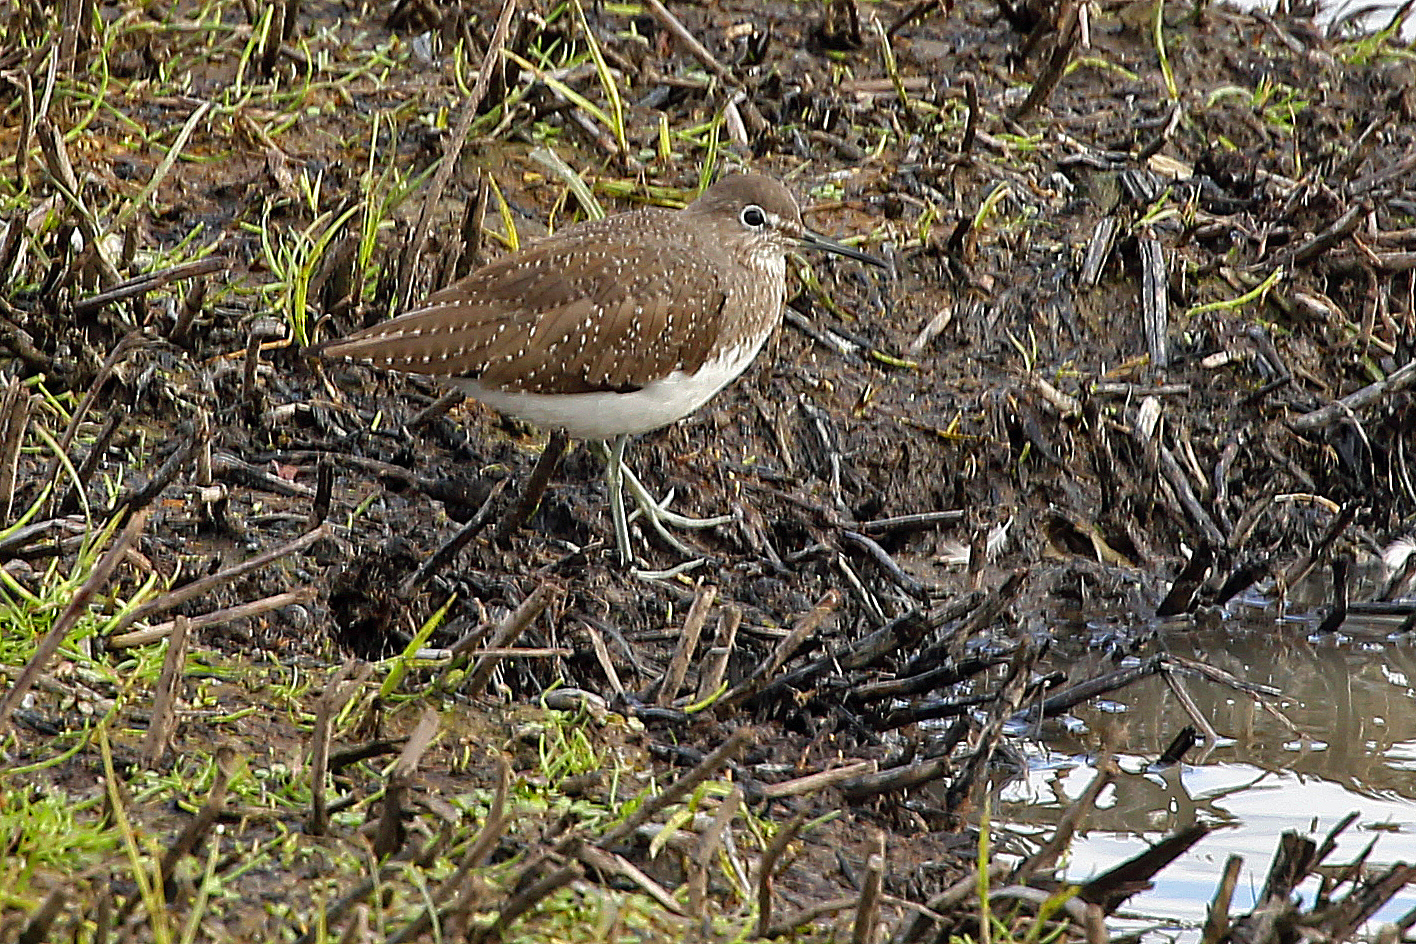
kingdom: Animalia
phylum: Chordata
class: Aves
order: Charadriiformes
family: Scolopacidae
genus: Tringa
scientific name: Tringa ochropus
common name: Green sandpiper
